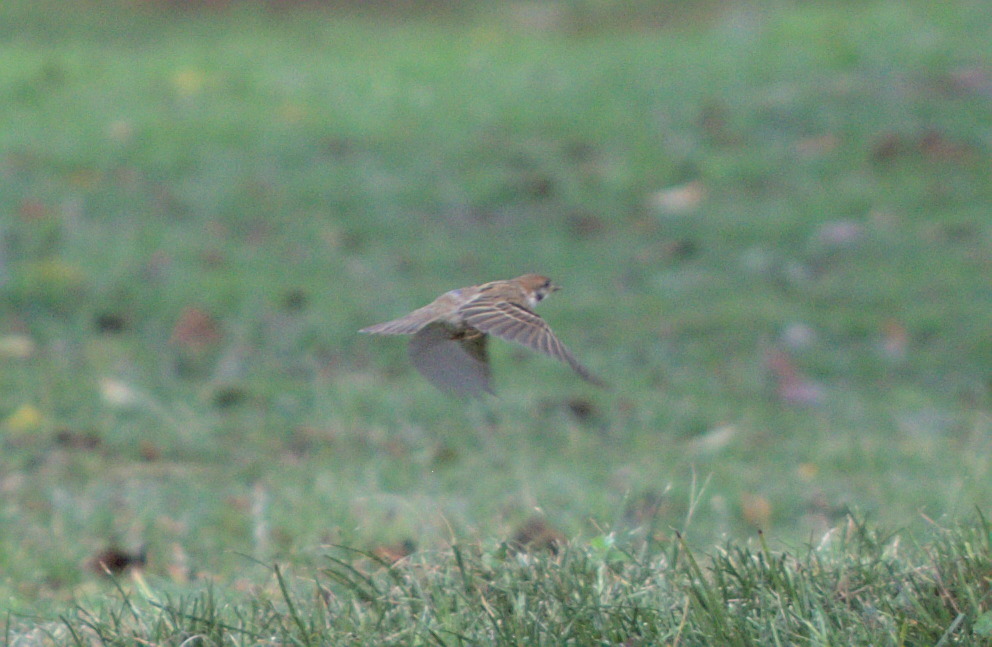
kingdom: Animalia
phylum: Chordata
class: Aves
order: Passeriformes
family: Passeridae
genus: Passer
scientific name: Passer montanus
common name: Eurasian tree sparrow
